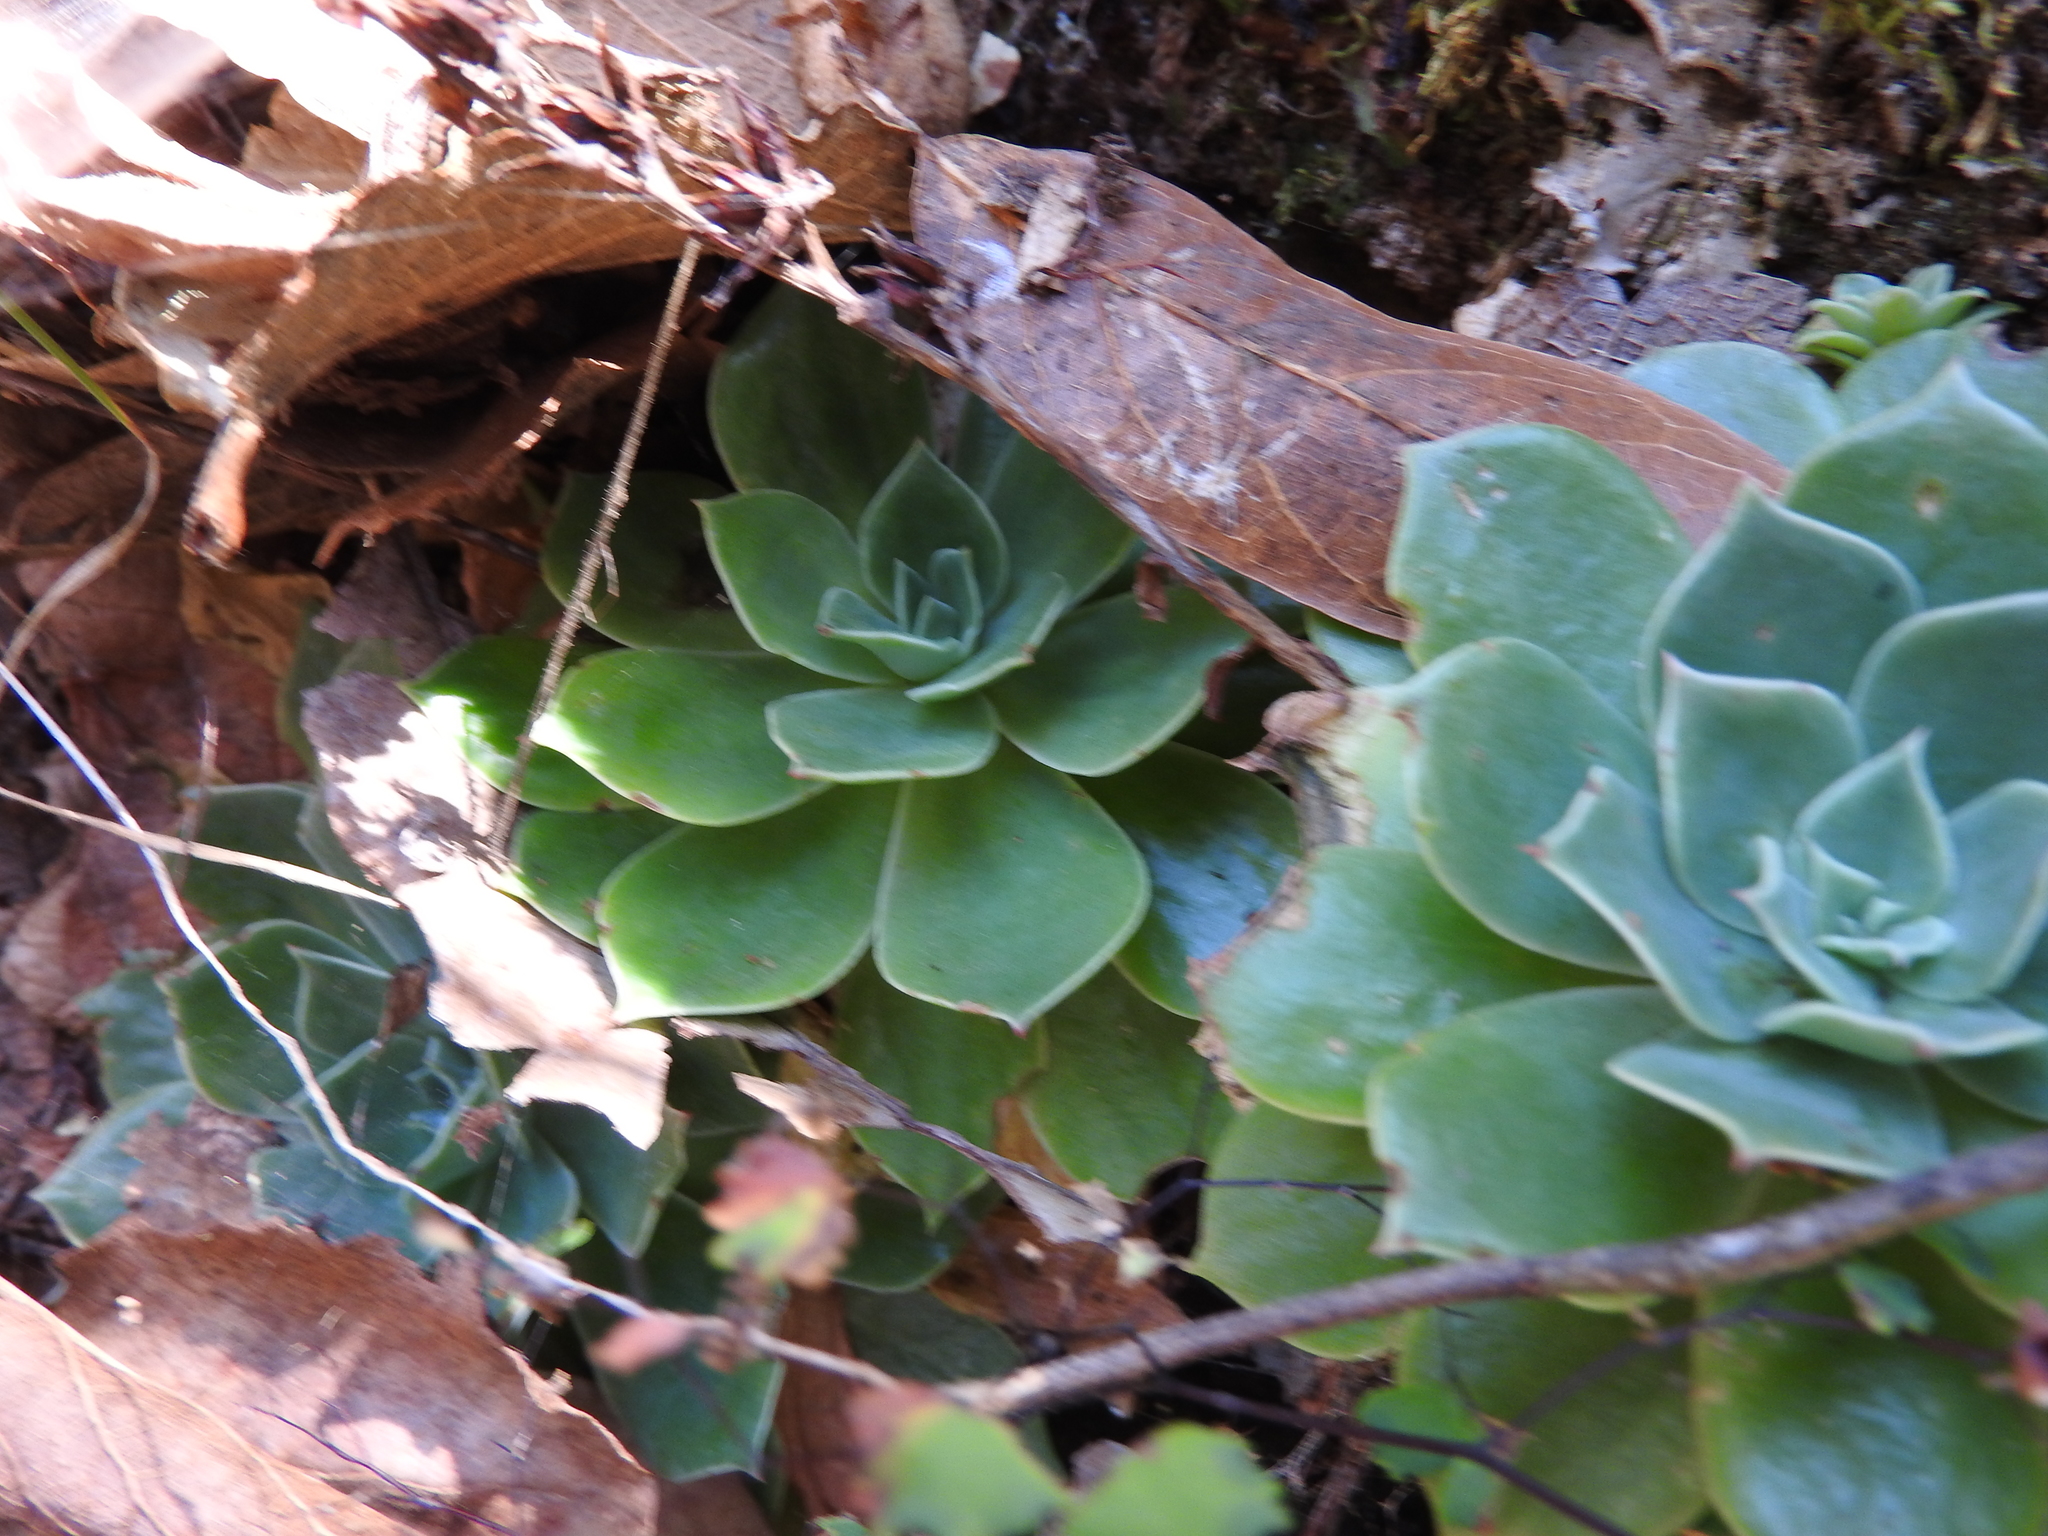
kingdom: Plantae
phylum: Tracheophyta
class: Magnoliopsida
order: Saxifragales
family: Crassulaceae
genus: Echeveria
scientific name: Echeveria secunda
